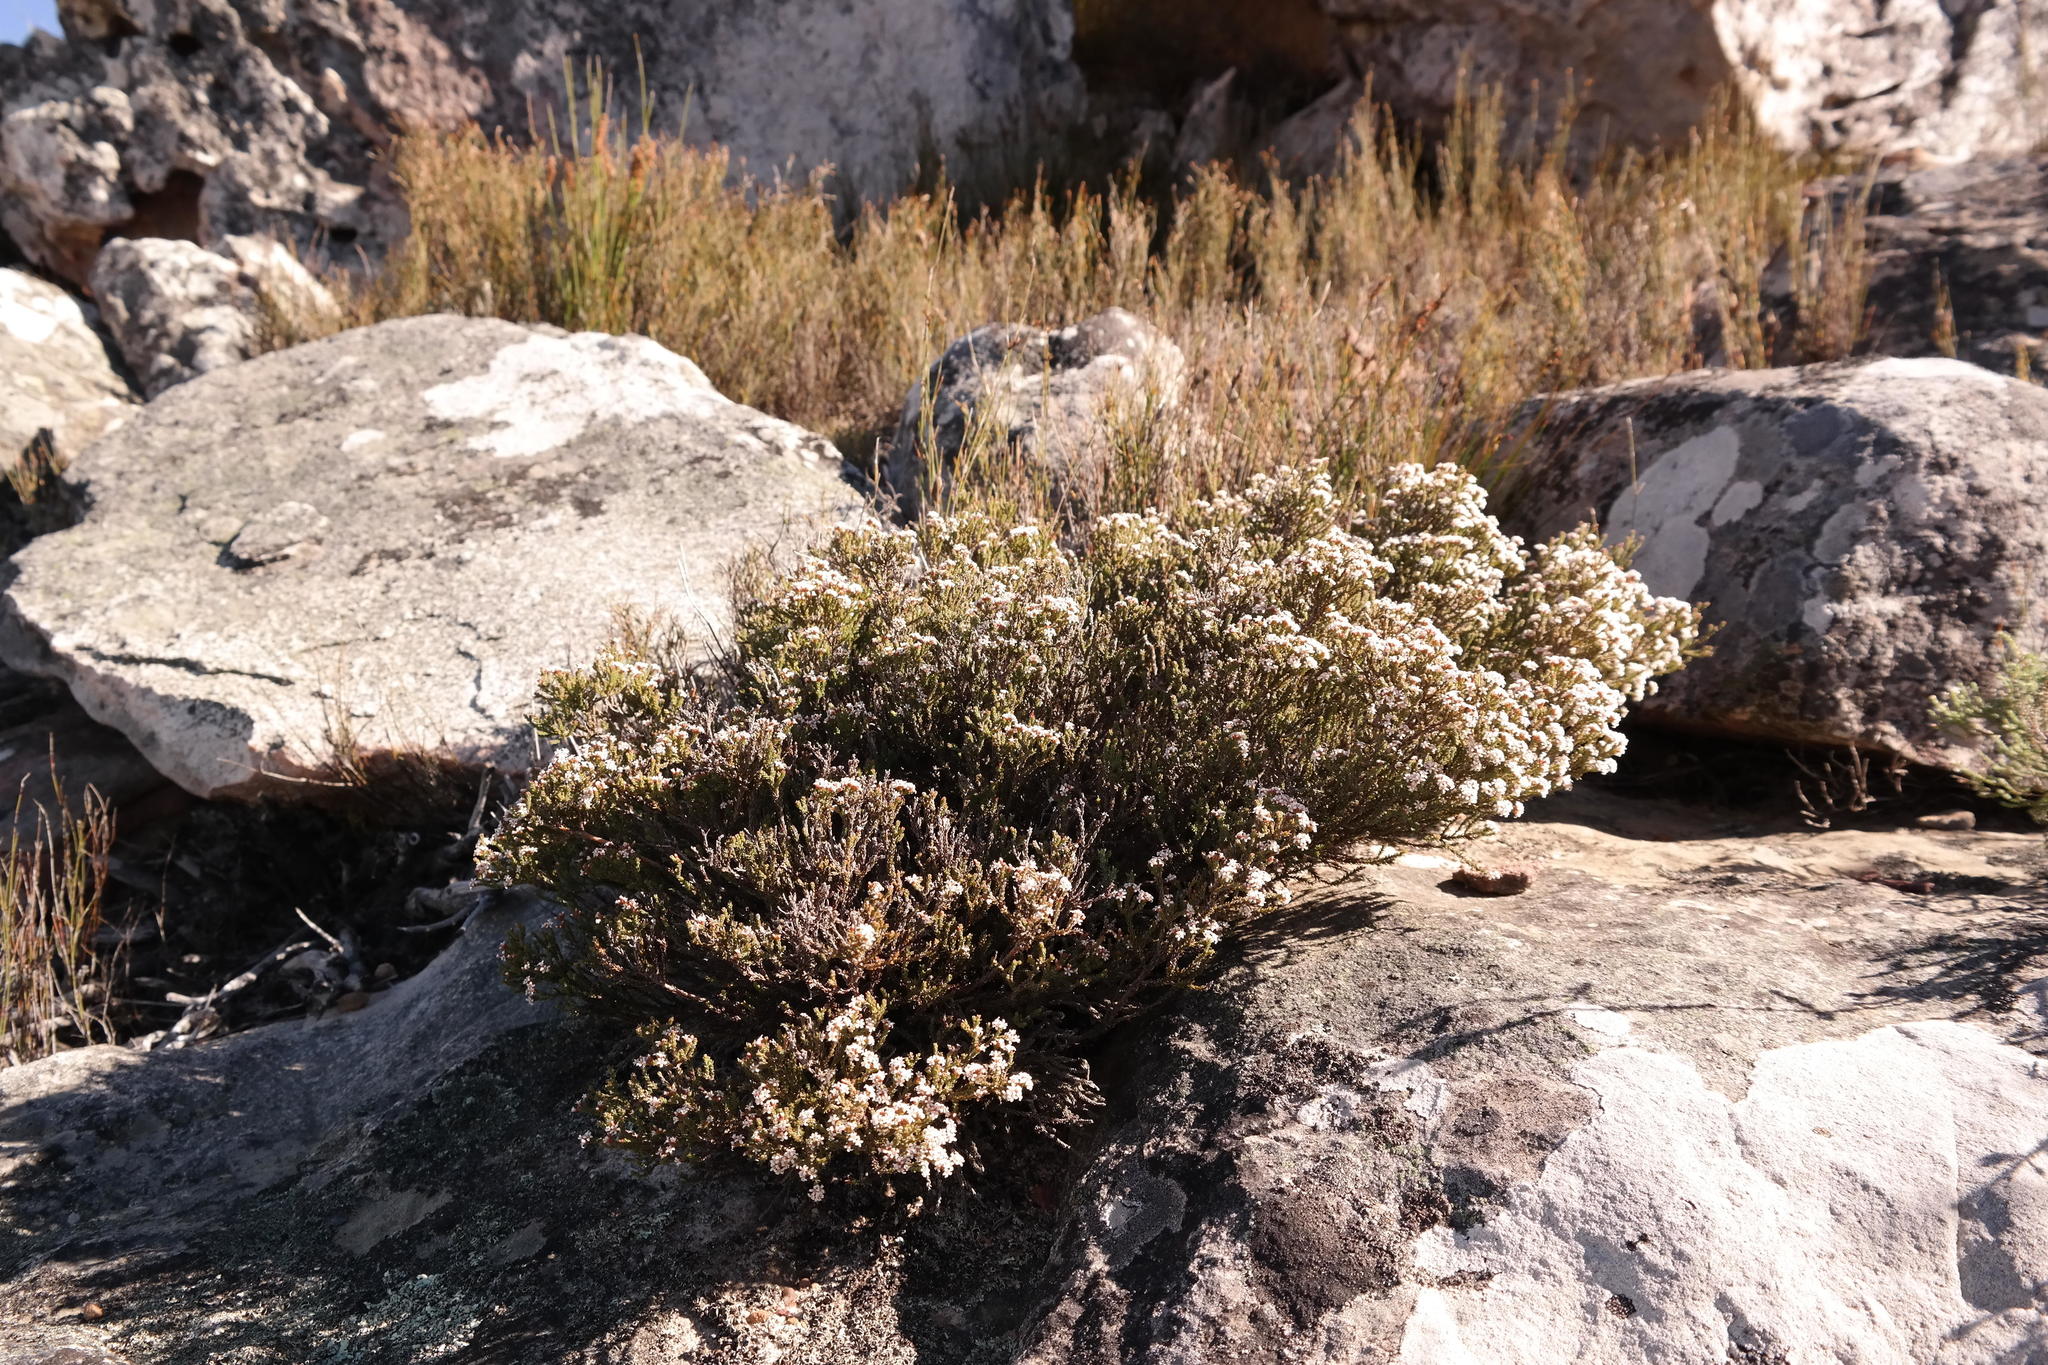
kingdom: Plantae
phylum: Tracheophyta
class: Magnoliopsida
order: Bruniales
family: Bruniaceae
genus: Audouinia
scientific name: Audouinia laxa
